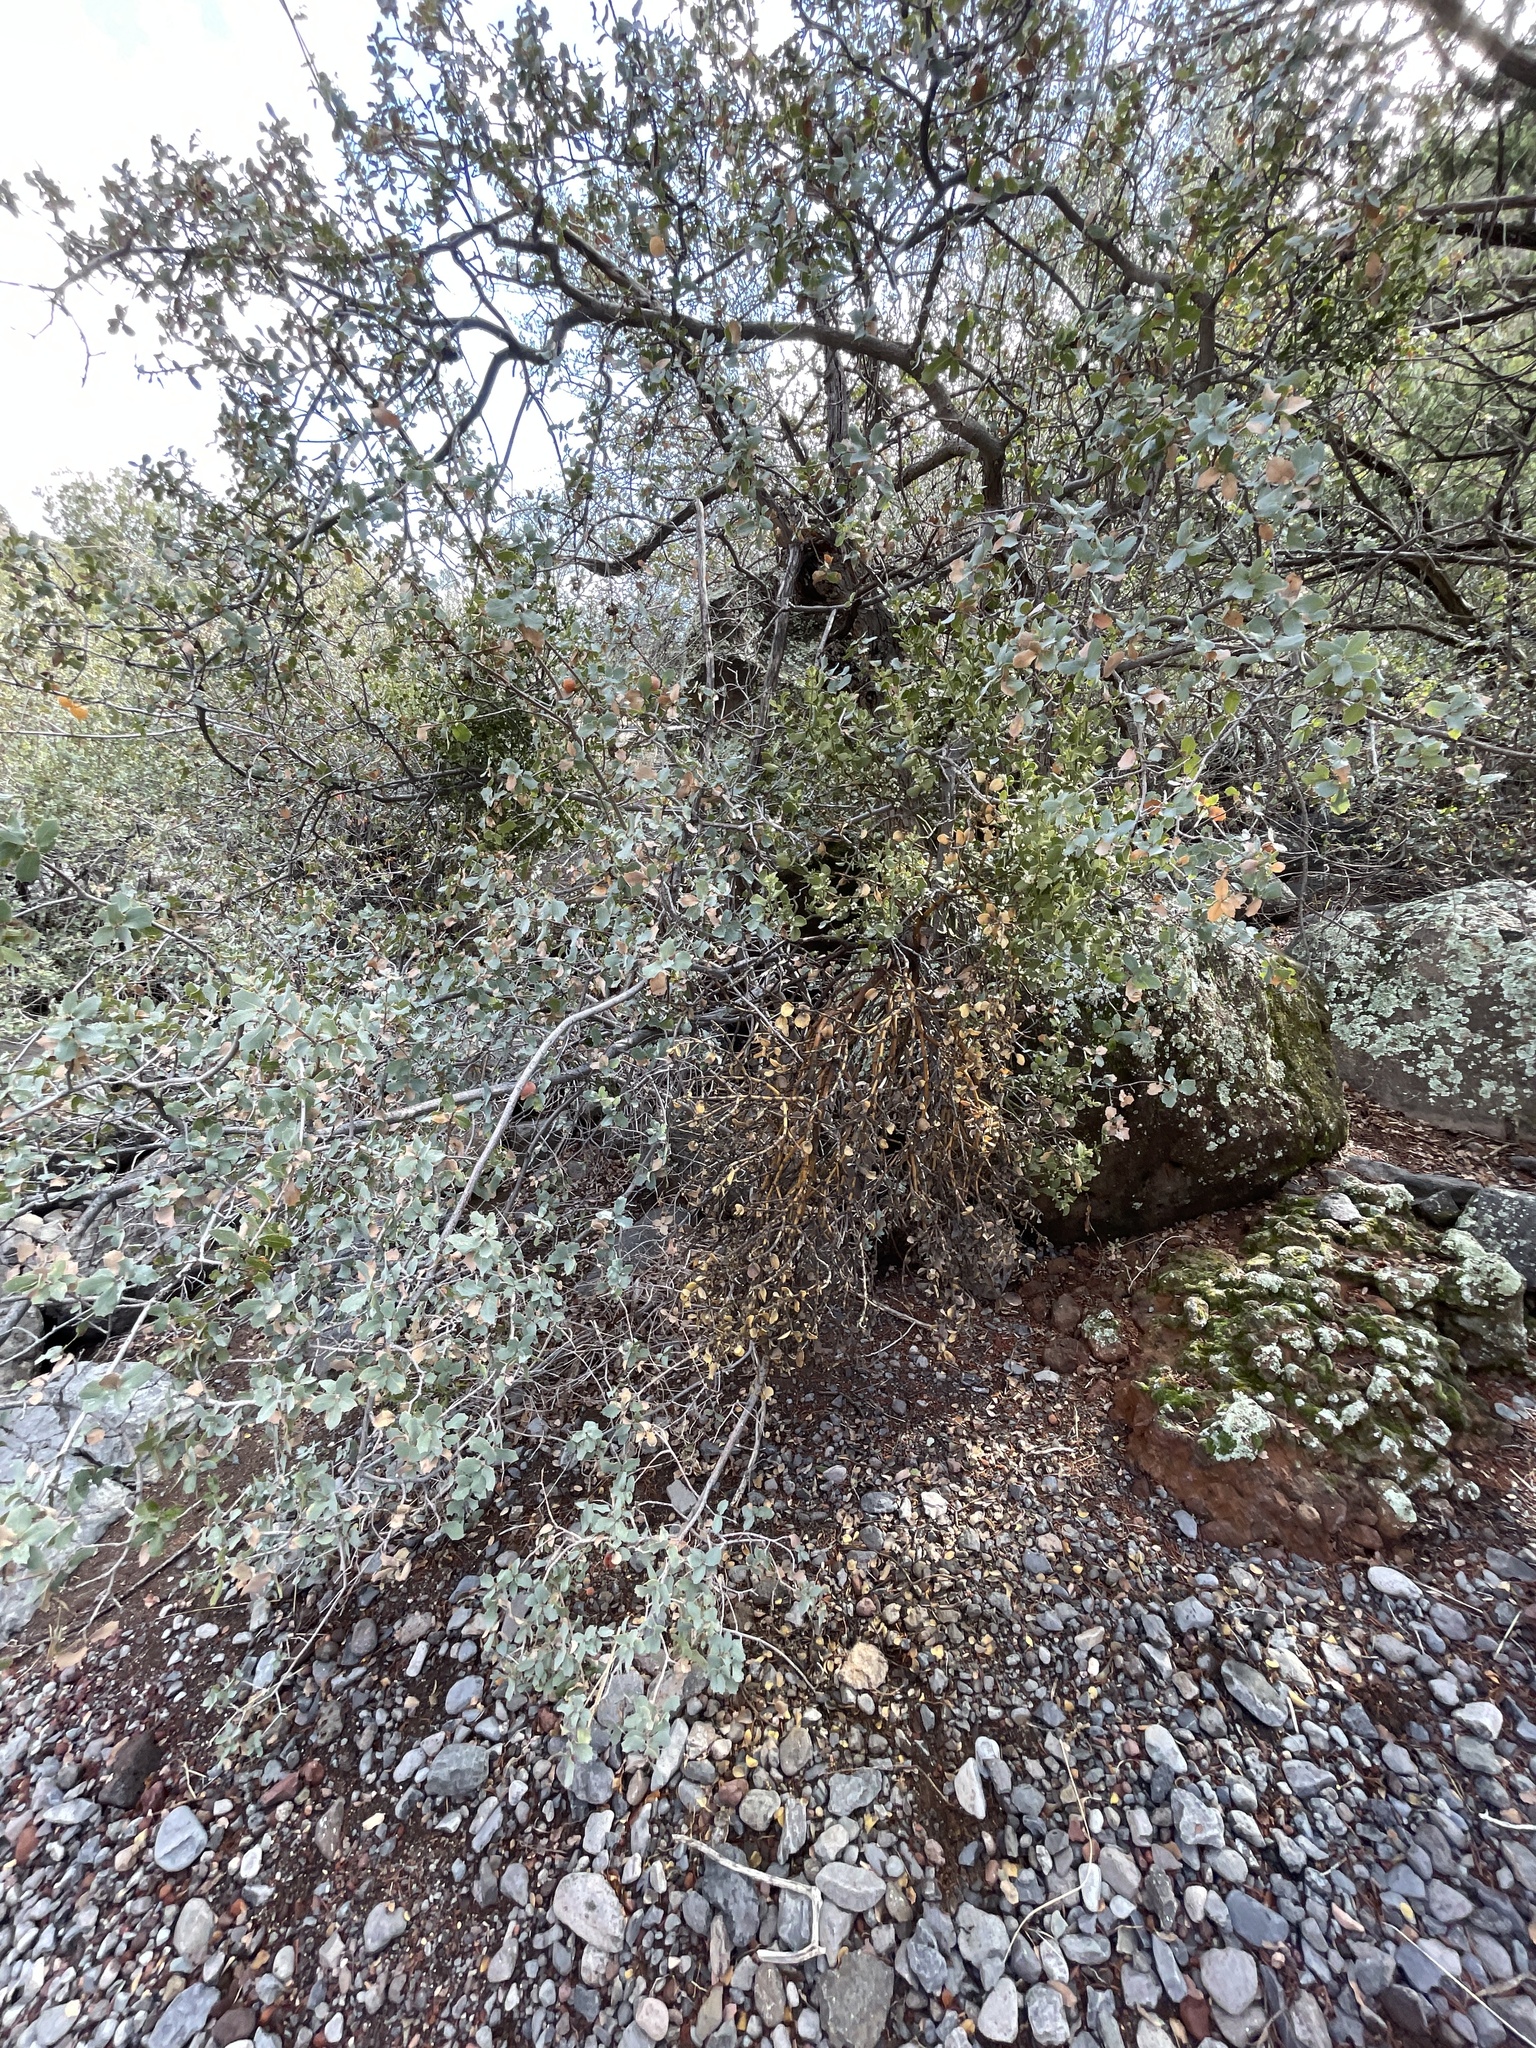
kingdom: Plantae
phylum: Tracheophyta
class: Magnoliopsida
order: Santalales
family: Viscaceae
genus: Phoradendron
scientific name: Phoradendron coryae
